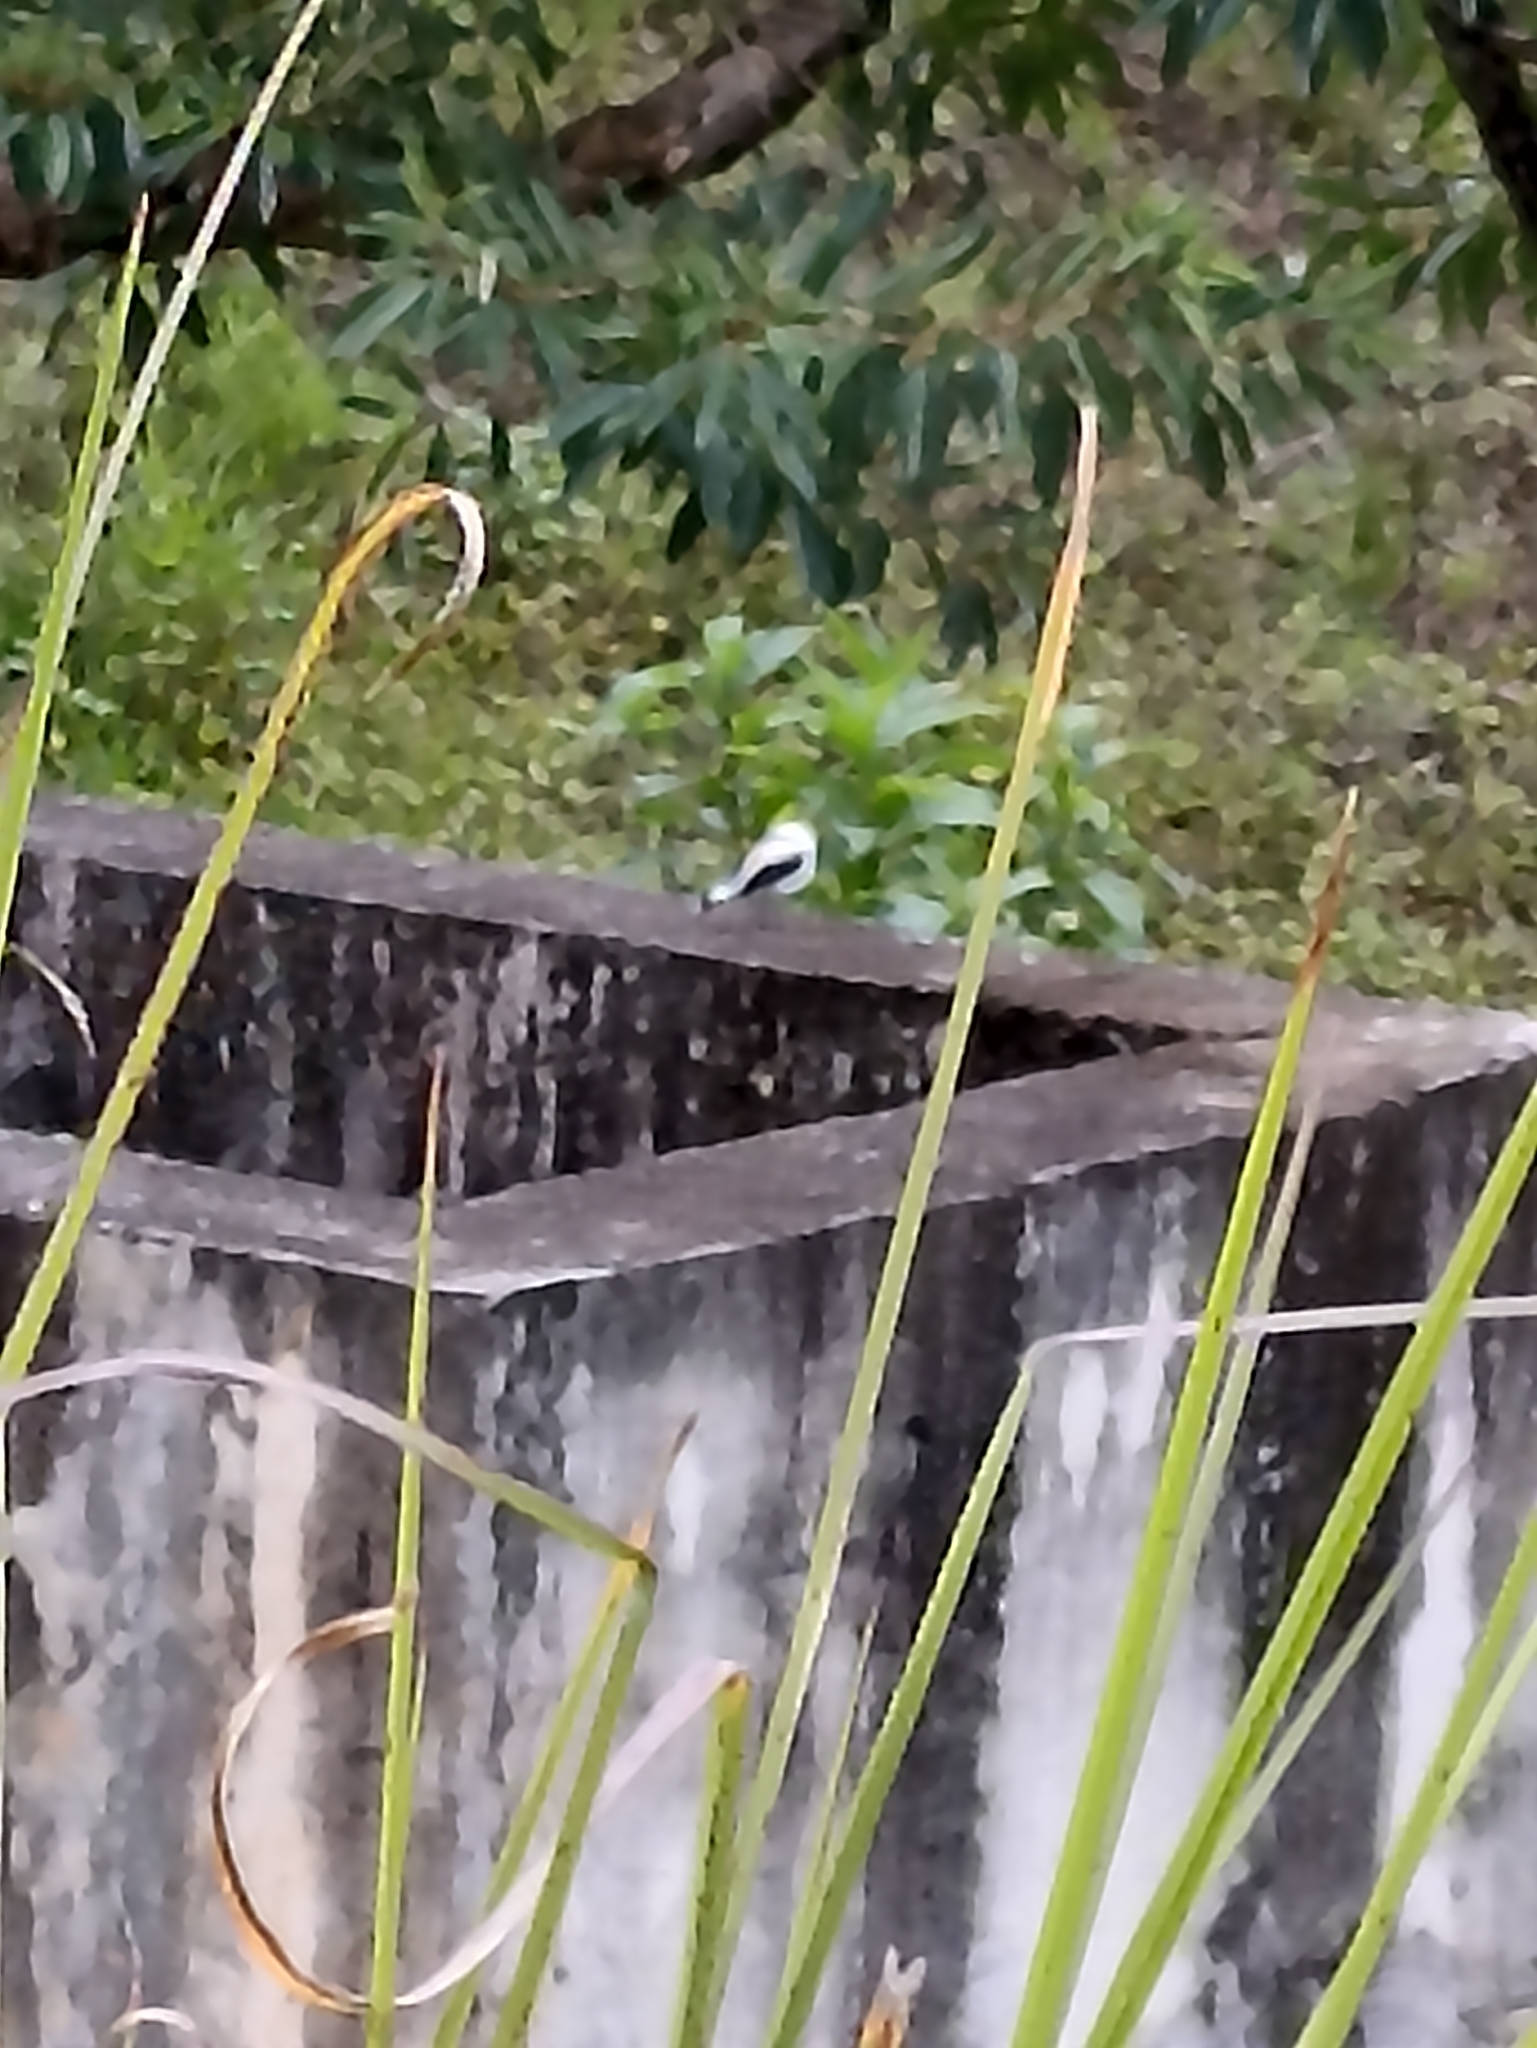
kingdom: Animalia
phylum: Chordata
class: Aves
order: Passeriformes
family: Tyrannidae
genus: Fluvicola
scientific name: Fluvicola nengeta
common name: Masked water tyrant
